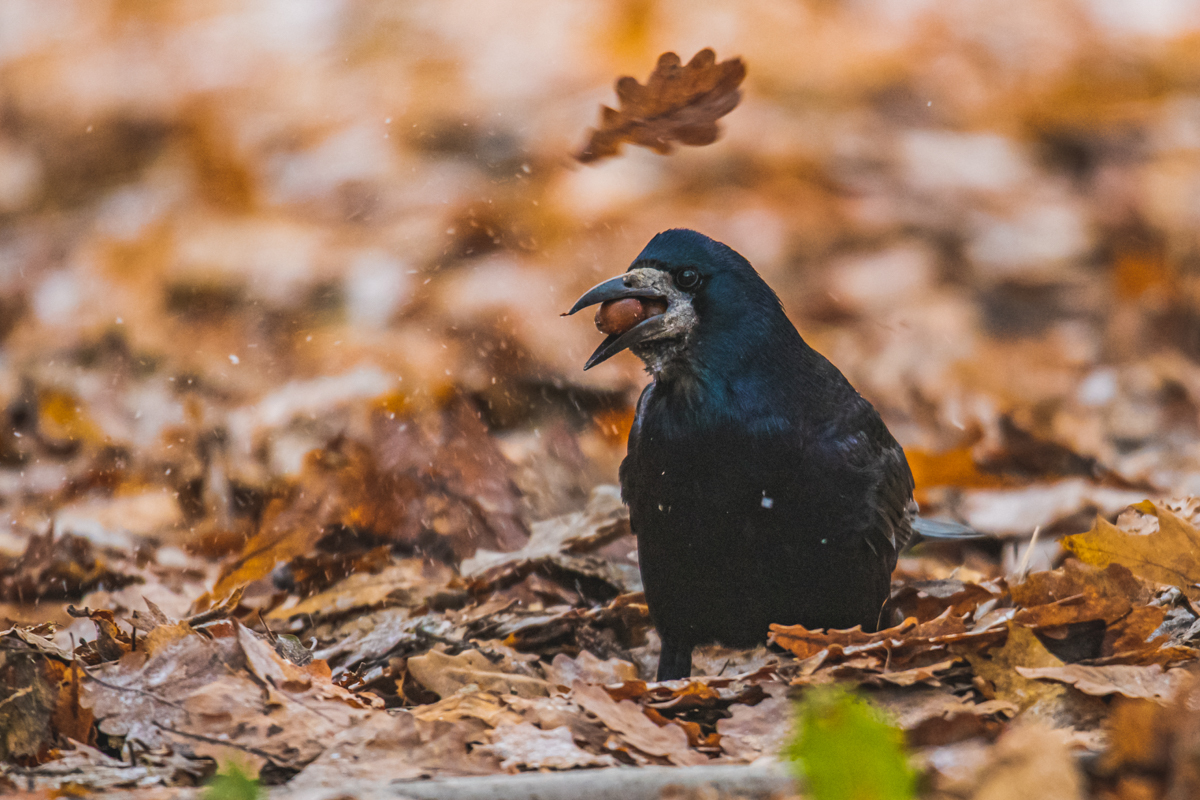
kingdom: Animalia
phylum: Chordata
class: Aves
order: Passeriformes
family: Corvidae
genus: Corvus
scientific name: Corvus frugilegus
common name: Rook
